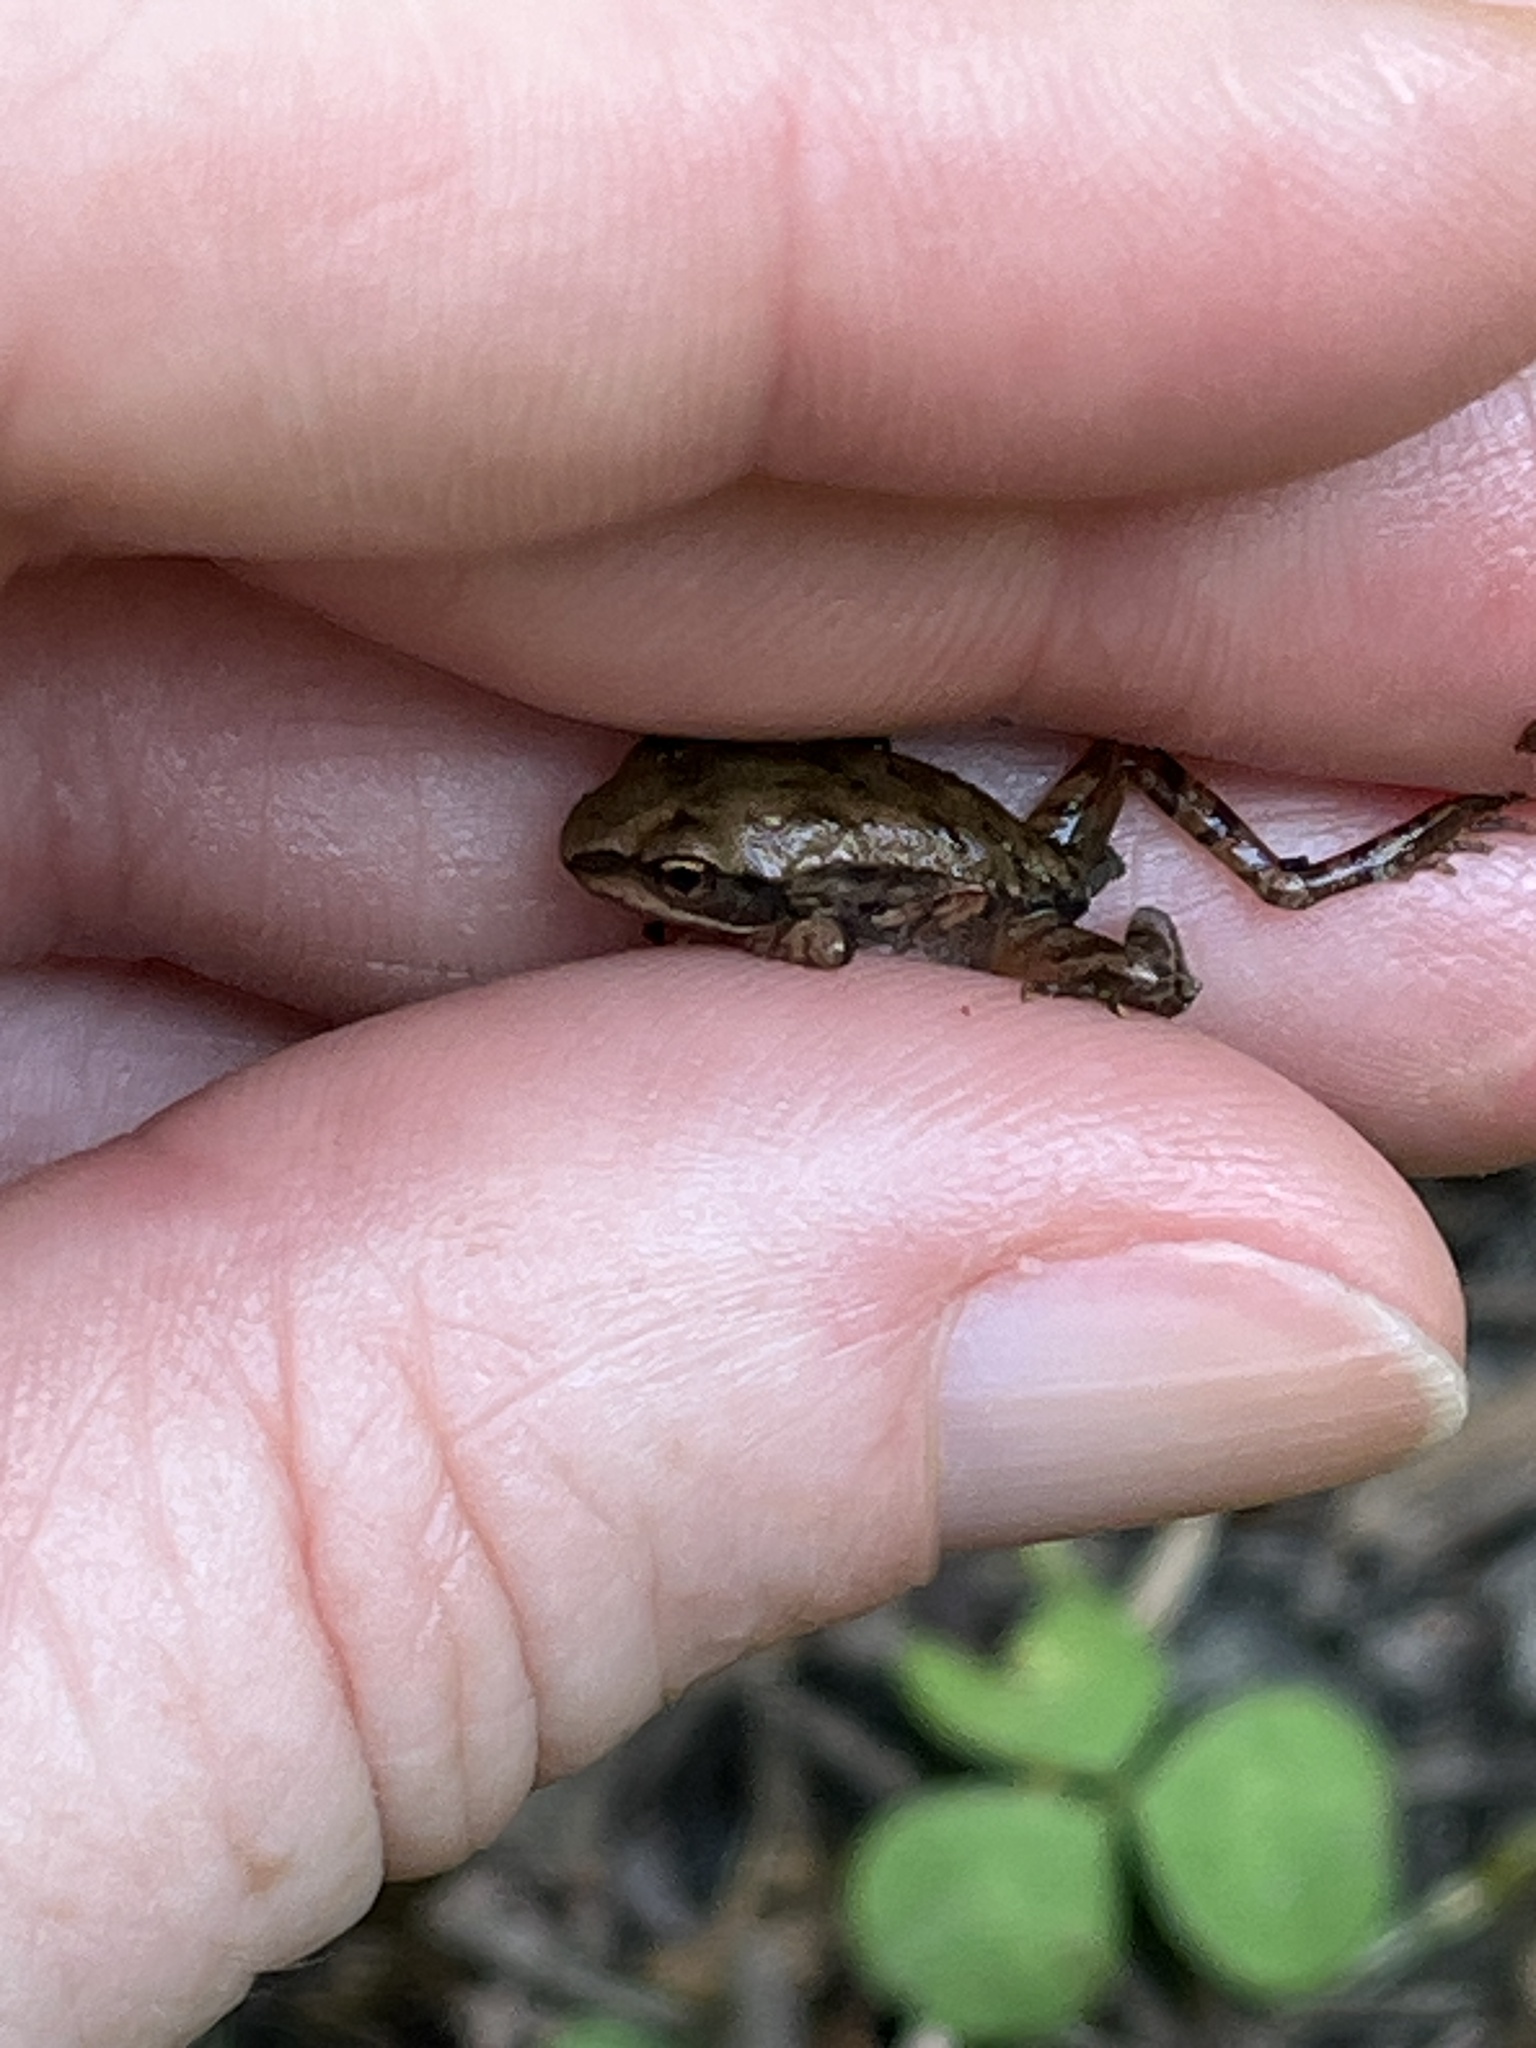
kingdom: Animalia
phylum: Chordata
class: Amphibia
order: Anura
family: Ranidae
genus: Lithobates
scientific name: Lithobates sylvaticus
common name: Wood frog
